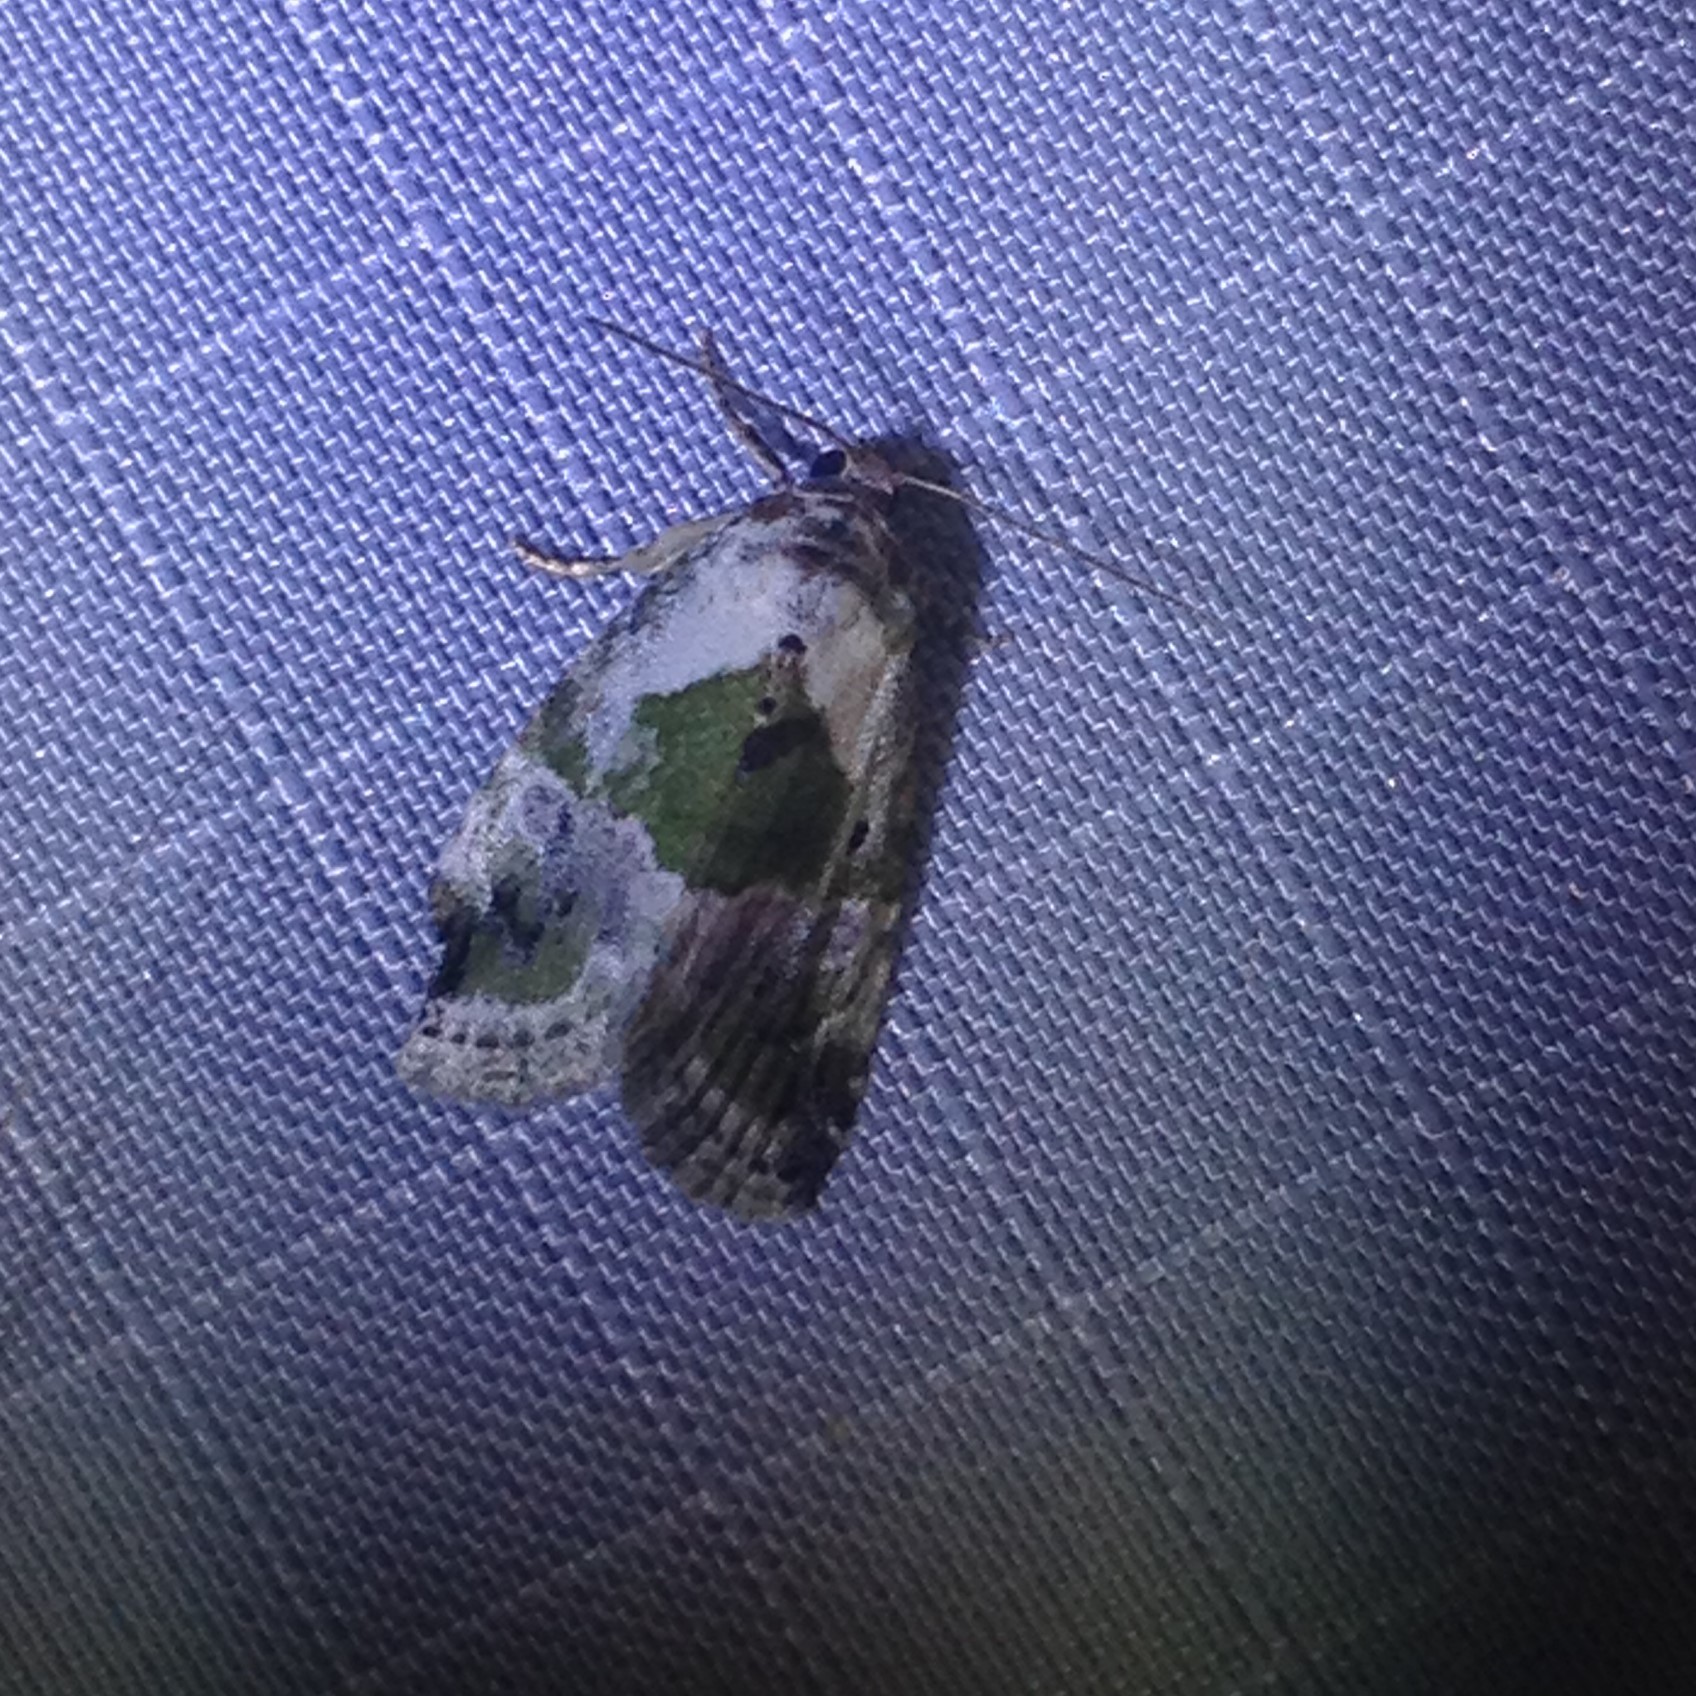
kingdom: Animalia
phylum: Arthropoda
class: Insecta
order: Lepidoptera
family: Noctuidae
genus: Maliattha
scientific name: Maliattha synochitis
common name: Black-dotted glyph
